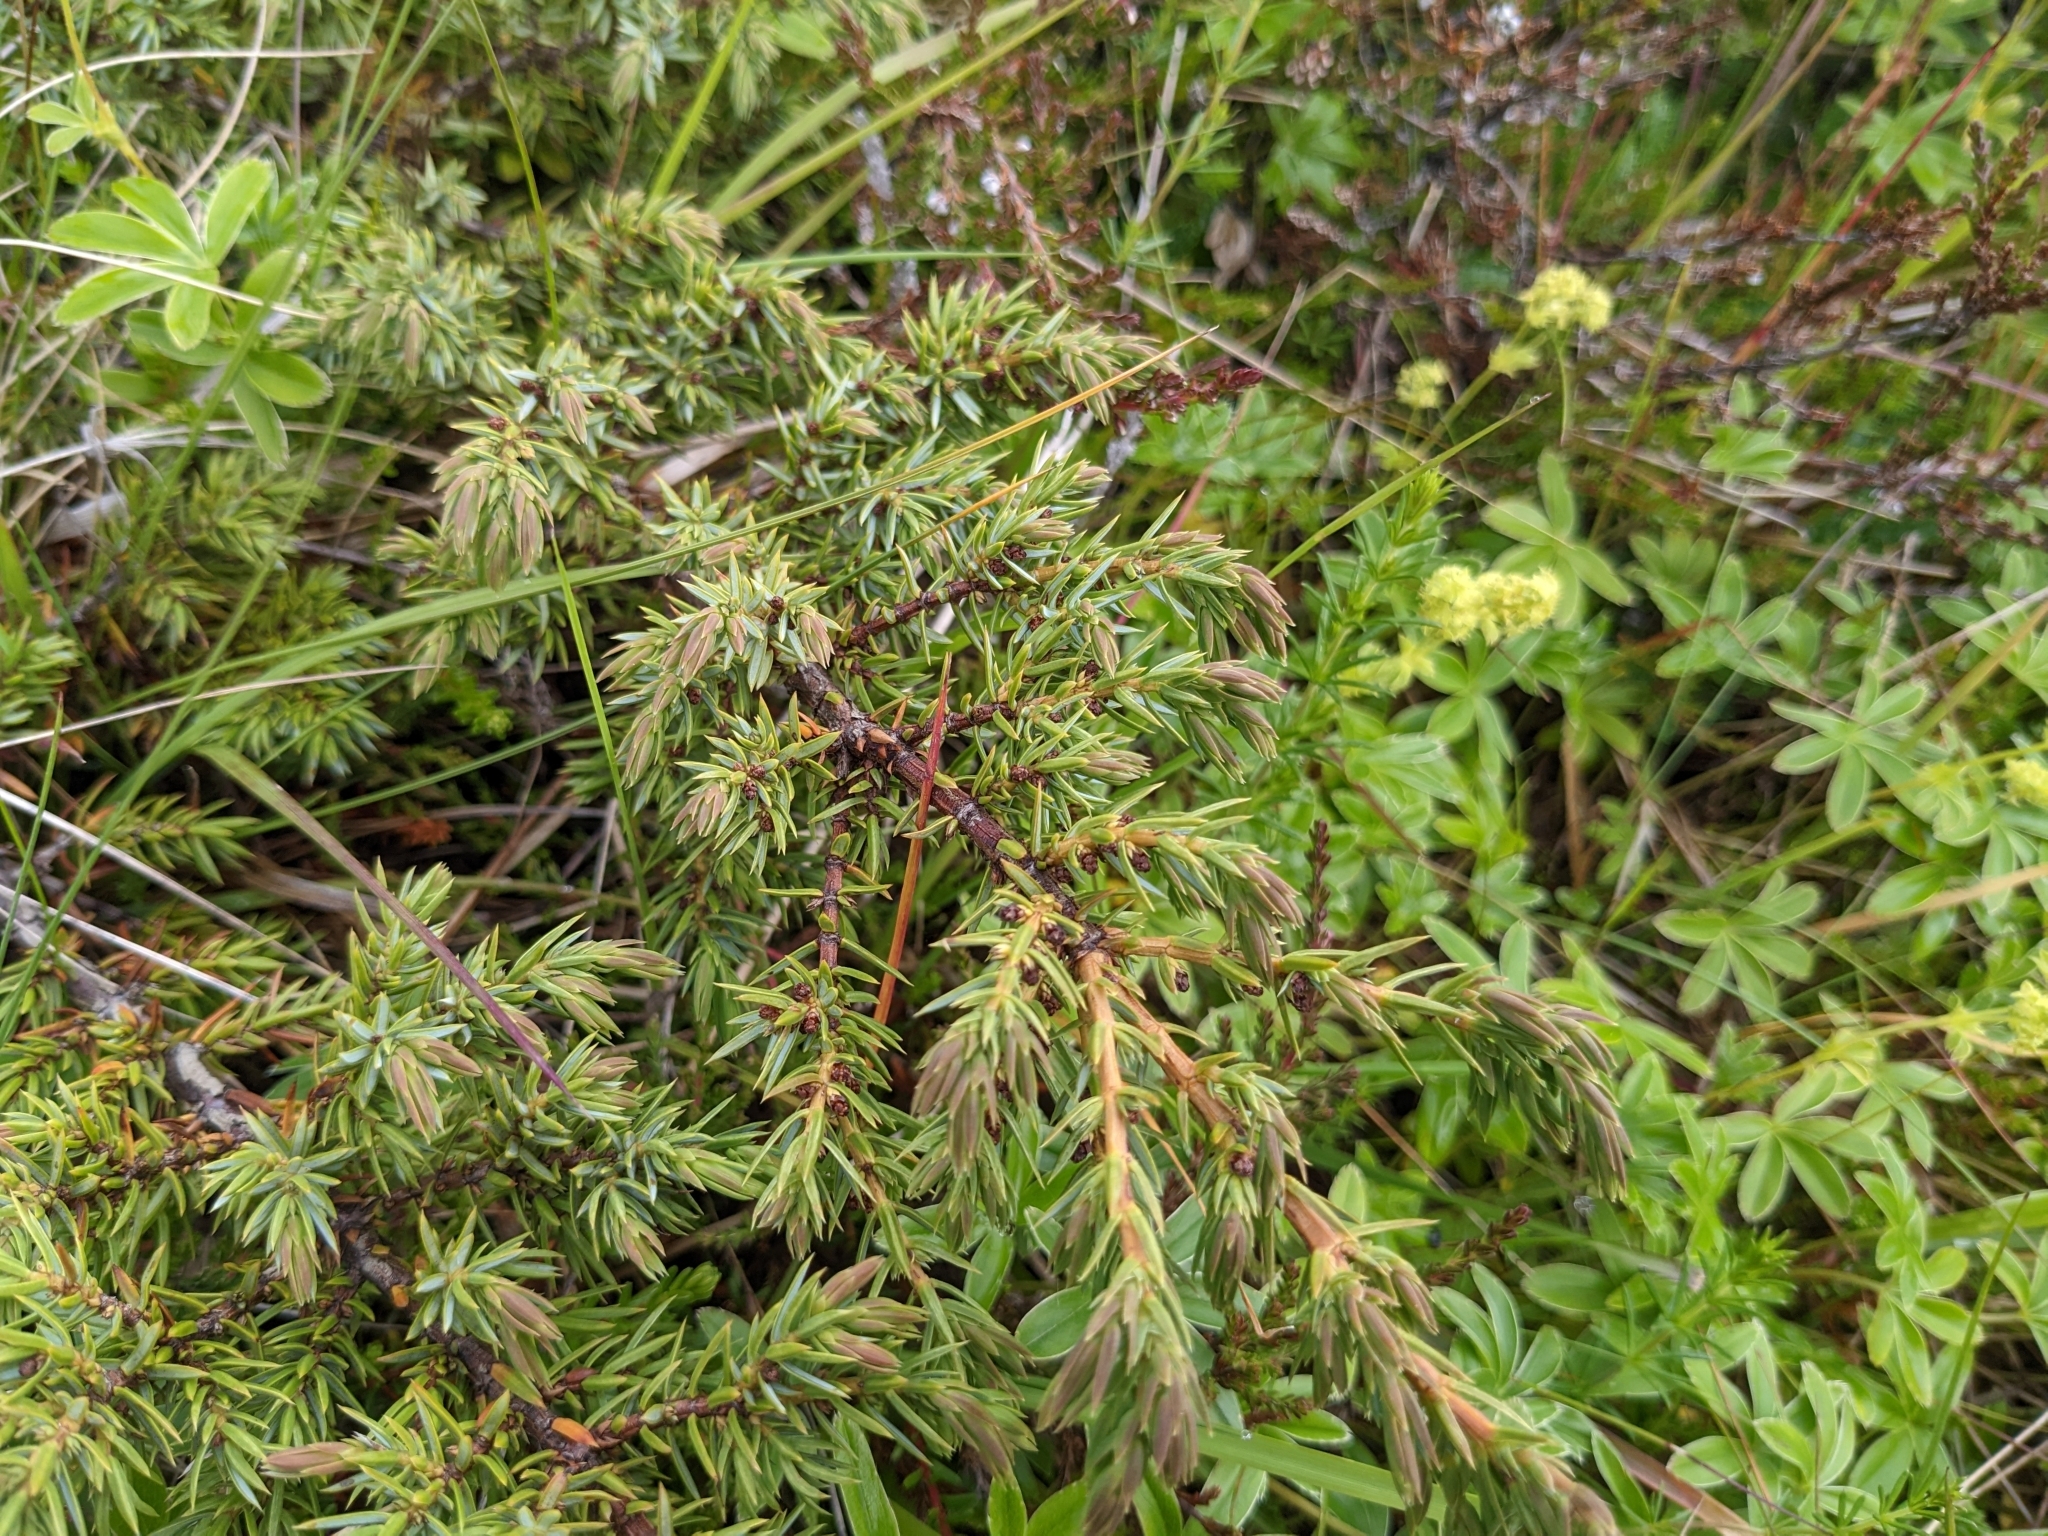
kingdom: Plantae
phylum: Tracheophyta
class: Pinopsida
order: Pinales
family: Cupressaceae
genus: Juniperus
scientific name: Juniperus communis
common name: Common juniper
